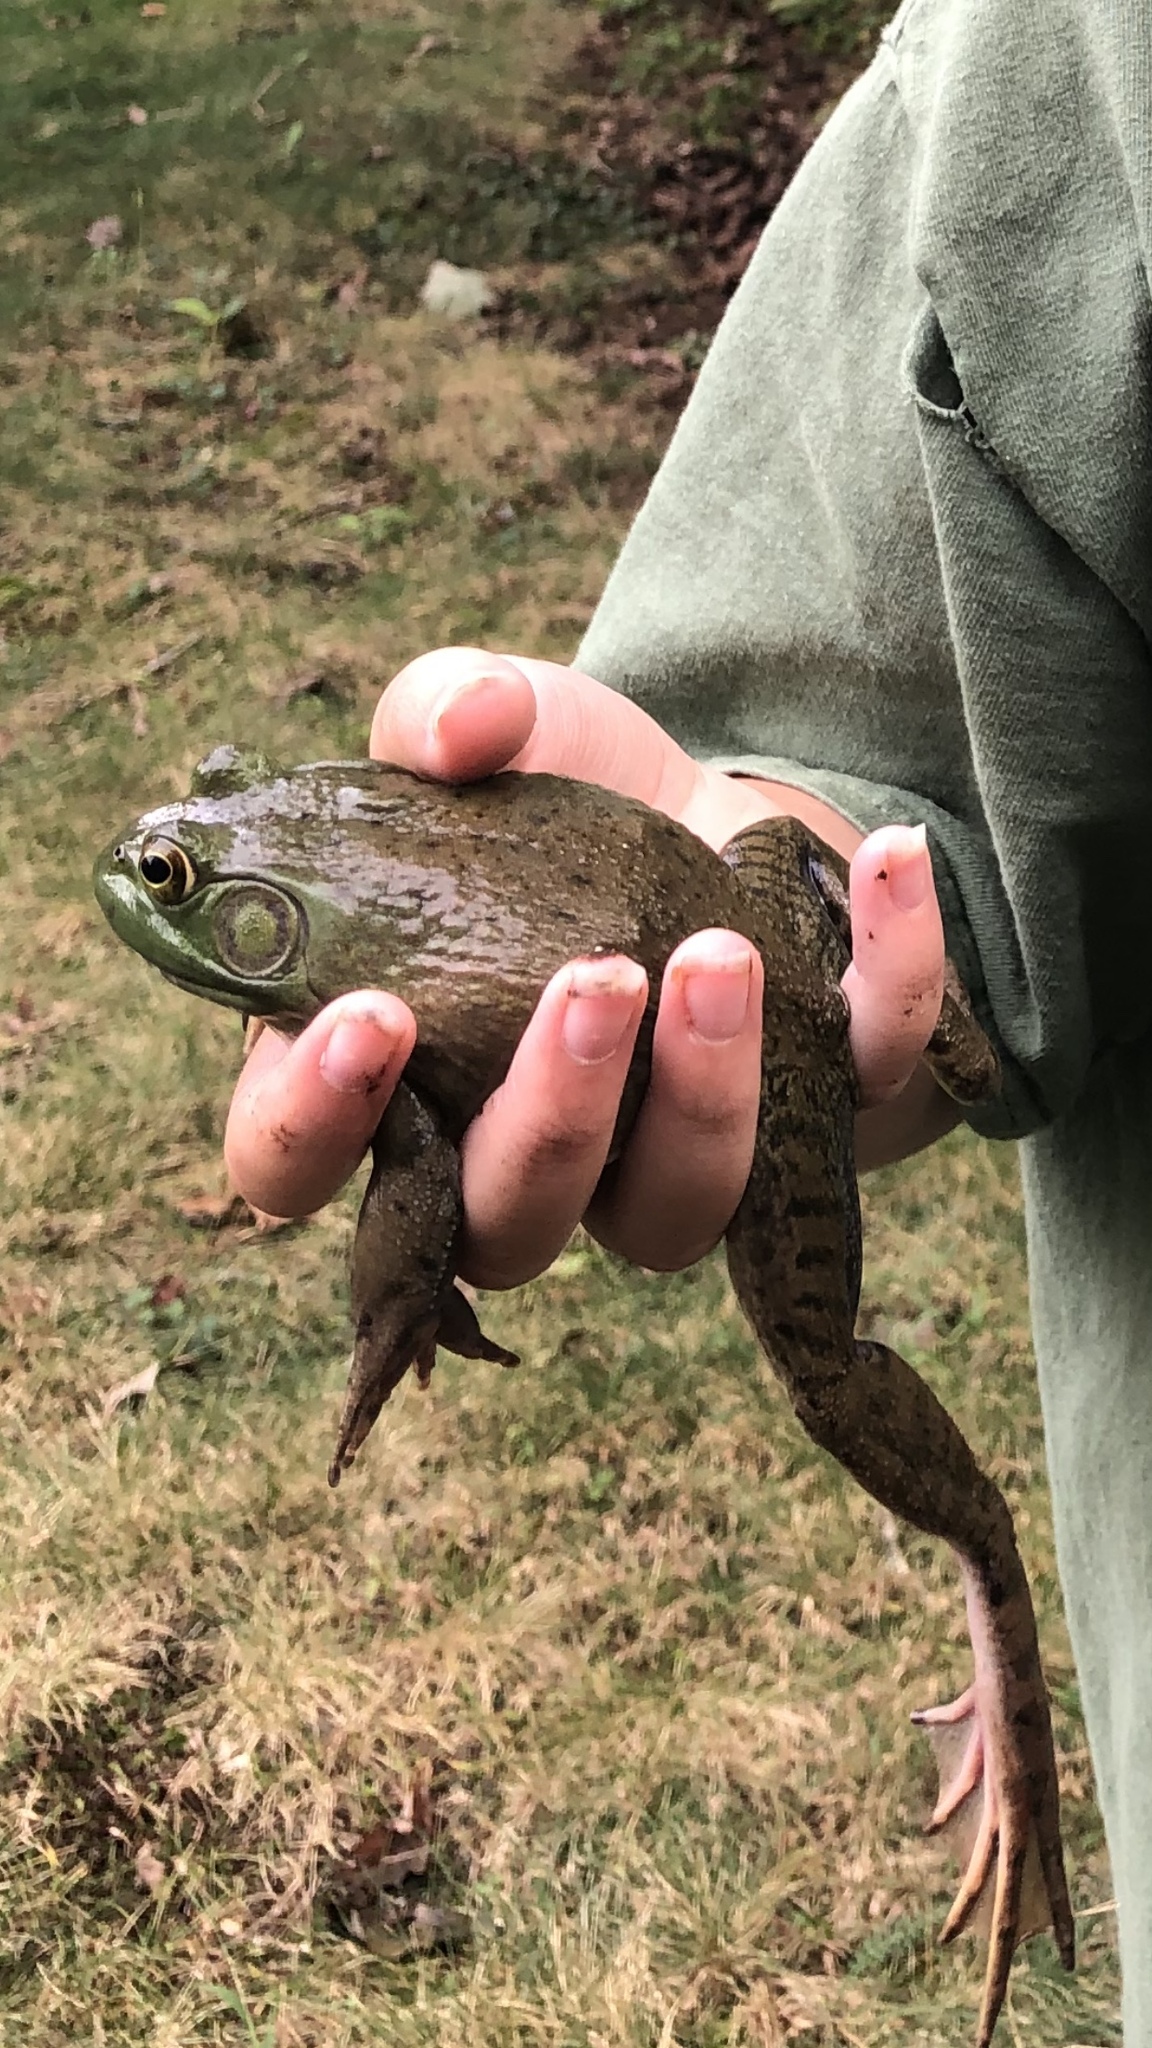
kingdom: Animalia
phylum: Chordata
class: Amphibia
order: Anura
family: Ranidae
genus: Lithobates
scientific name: Lithobates catesbeianus
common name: American bullfrog
